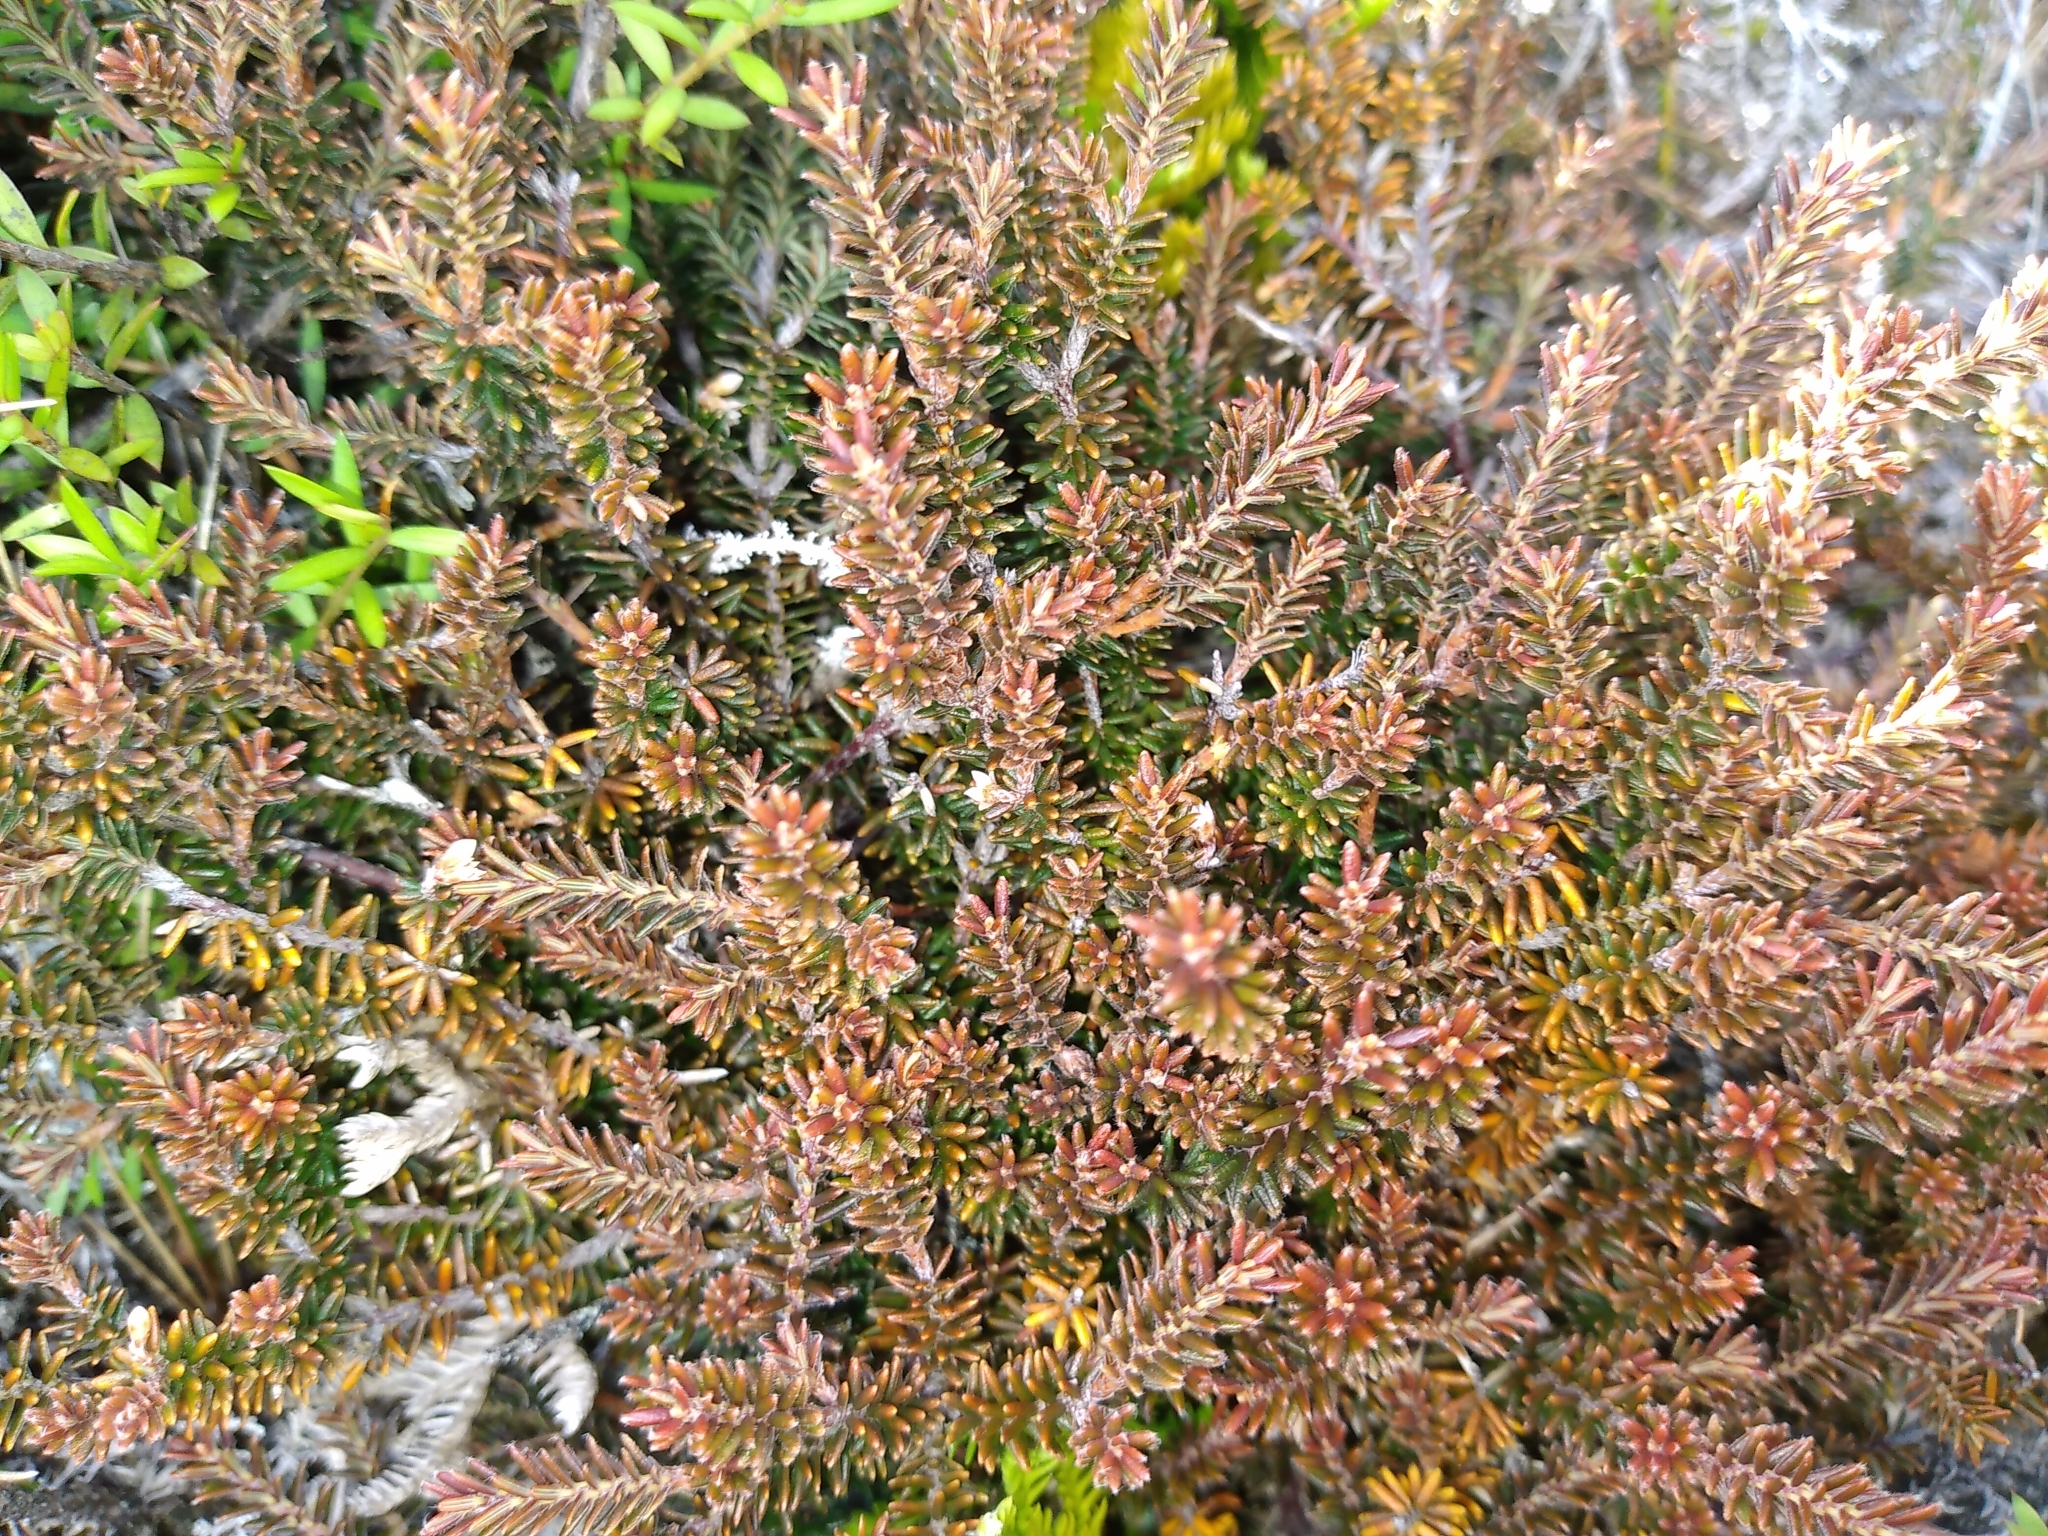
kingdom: Plantae
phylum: Tracheophyta
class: Magnoliopsida
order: Ericales
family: Ericaceae
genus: Androstoma
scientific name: Androstoma empetrifolia
